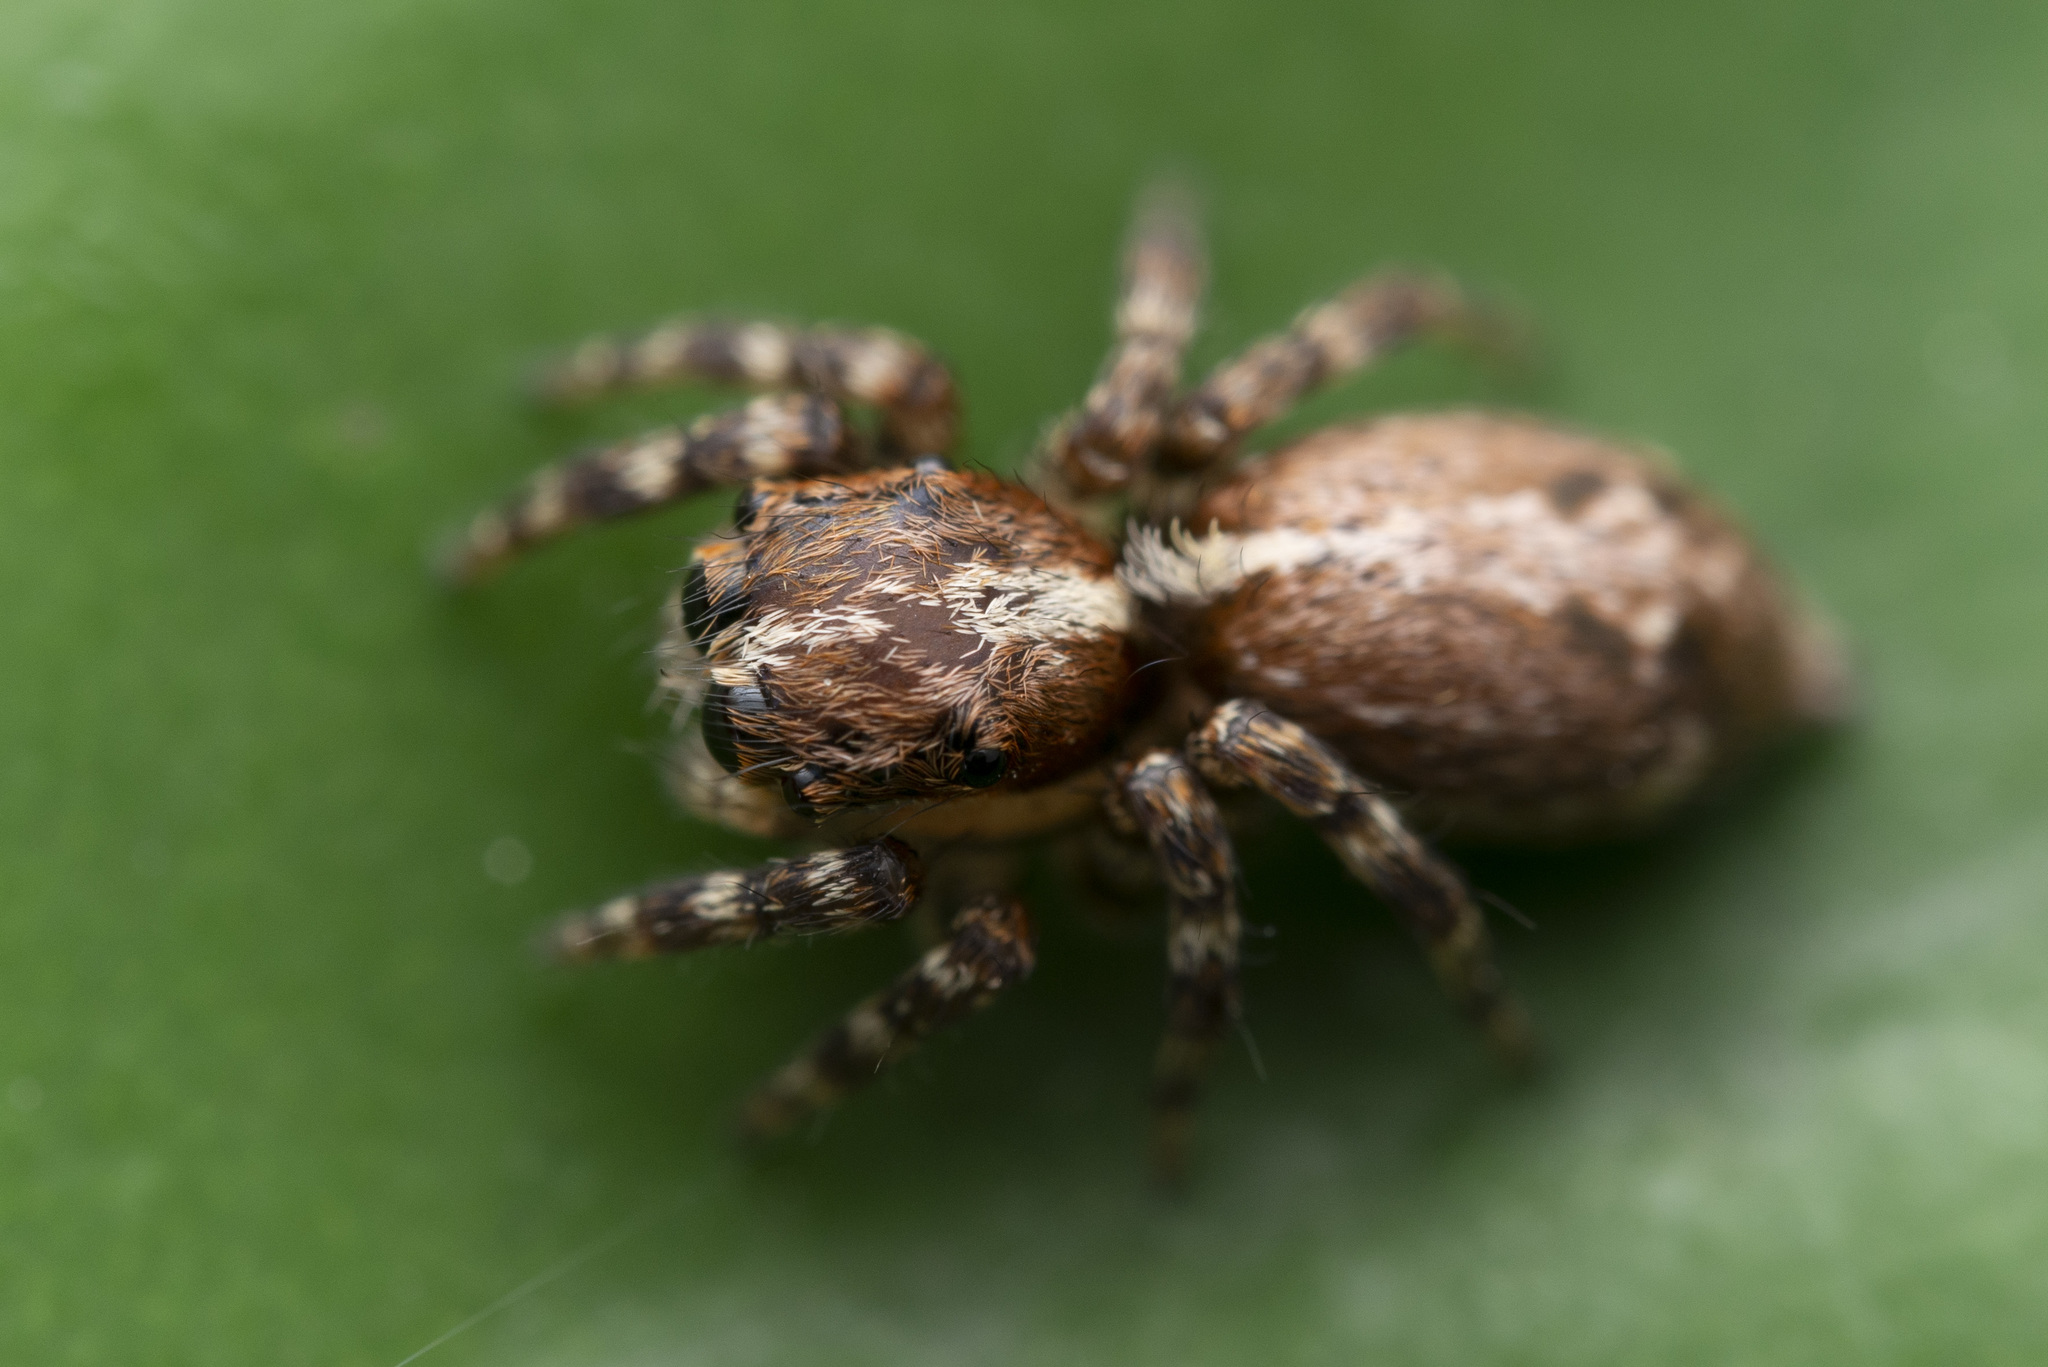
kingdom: Animalia
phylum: Arthropoda
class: Arachnida
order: Araneae
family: Salticidae
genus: Thyene
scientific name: Thyene orientalis
